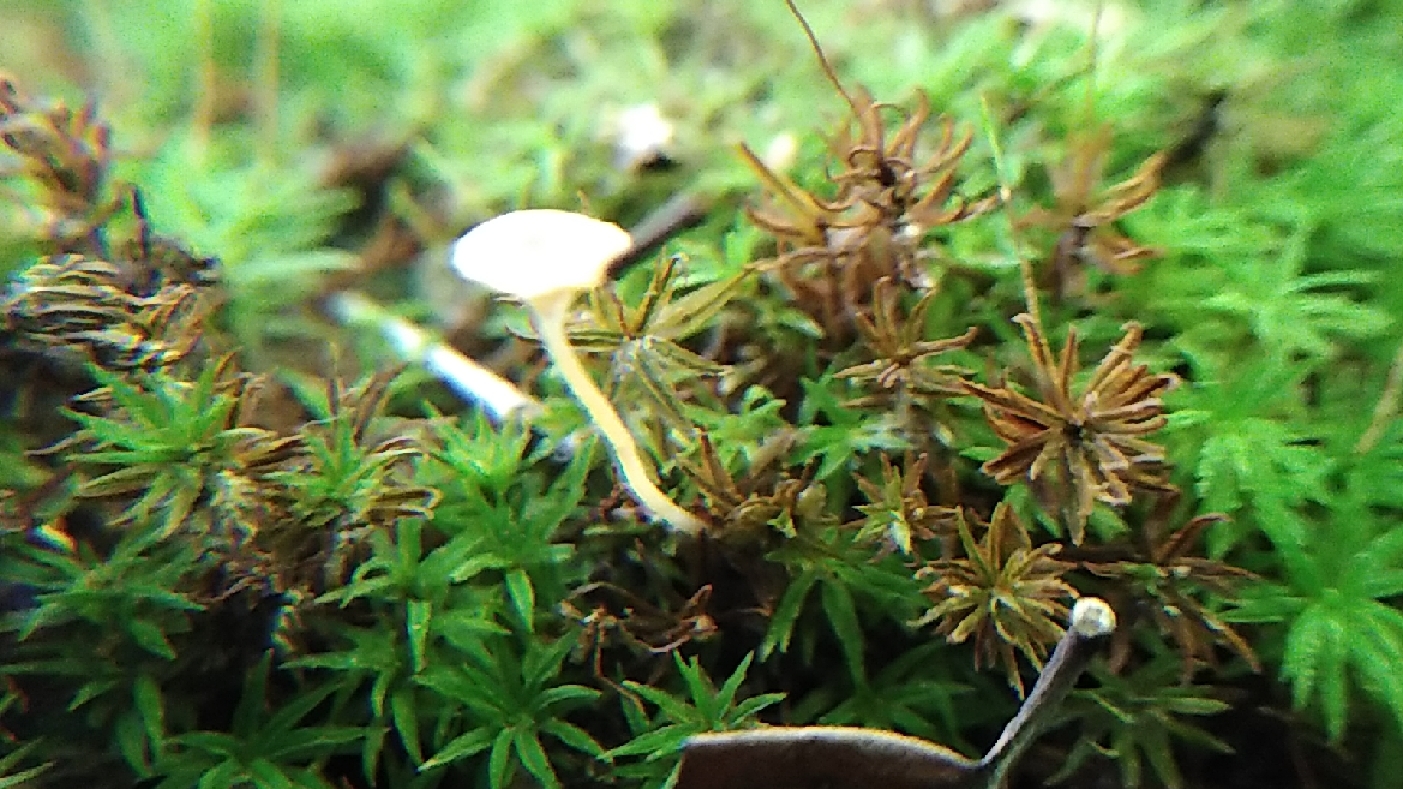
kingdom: Fungi
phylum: Basidiomycota
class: Agaricomycetes
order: Hymenochaetales
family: Rickenellaceae
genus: Rickenella
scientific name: Rickenella fibula
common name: Orange mosscap
